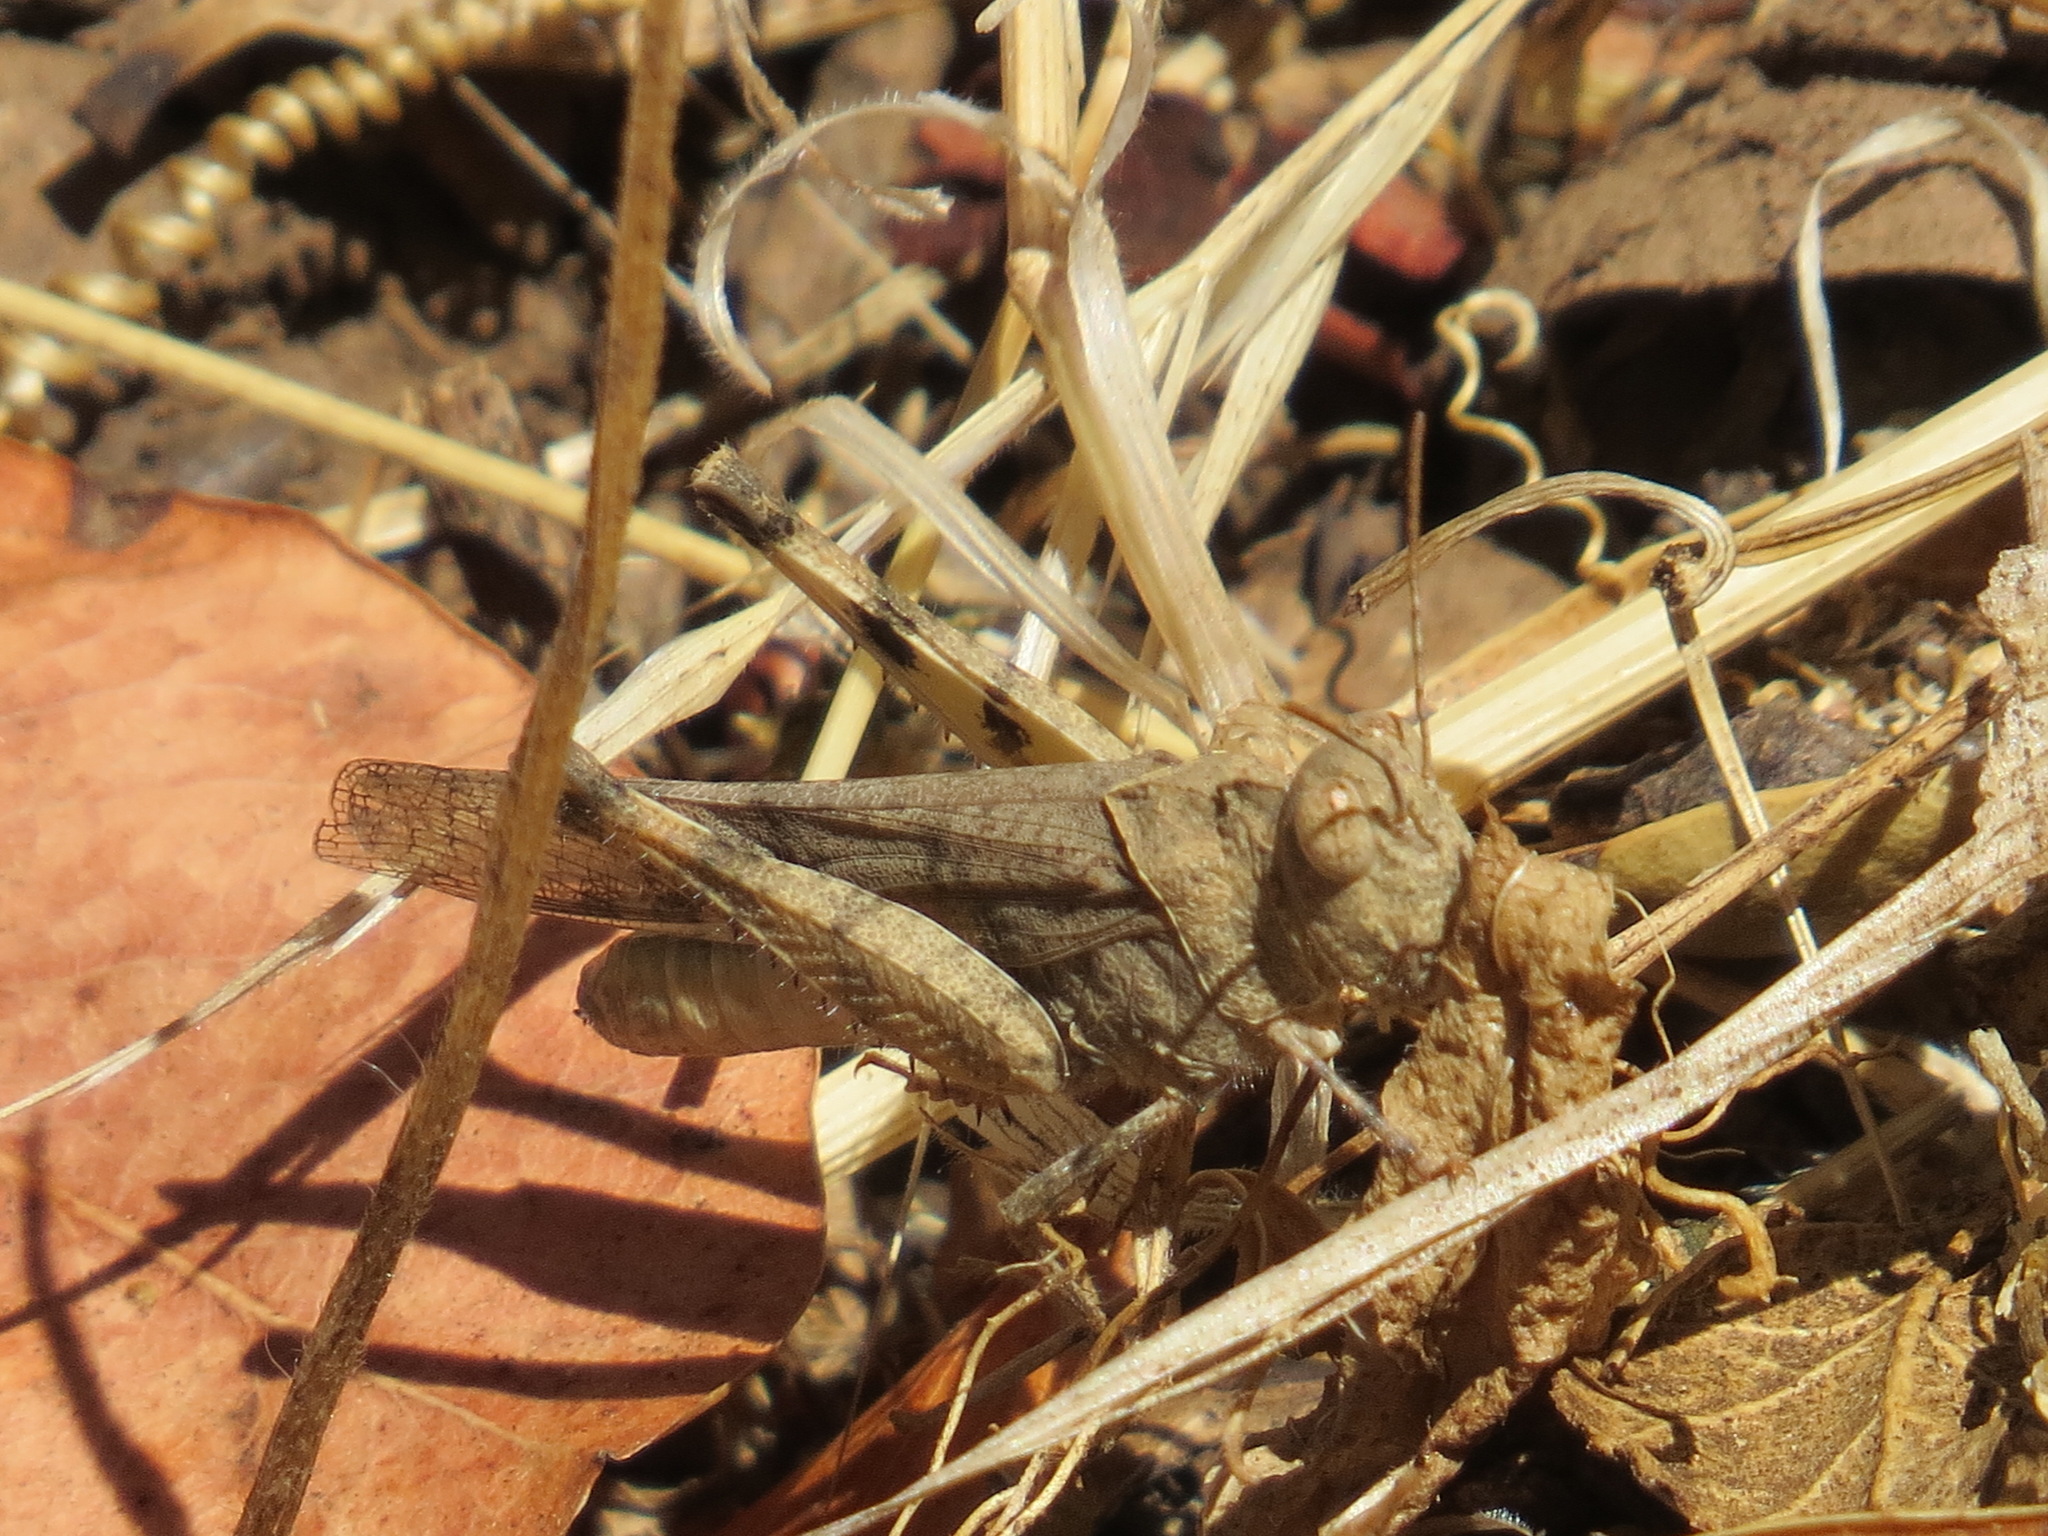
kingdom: Animalia
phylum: Arthropoda
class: Insecta
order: Orthoptera
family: Acrididae
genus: Dissosteira
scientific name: Dissosteira pictipennis
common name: California rose-winged grasshopper
